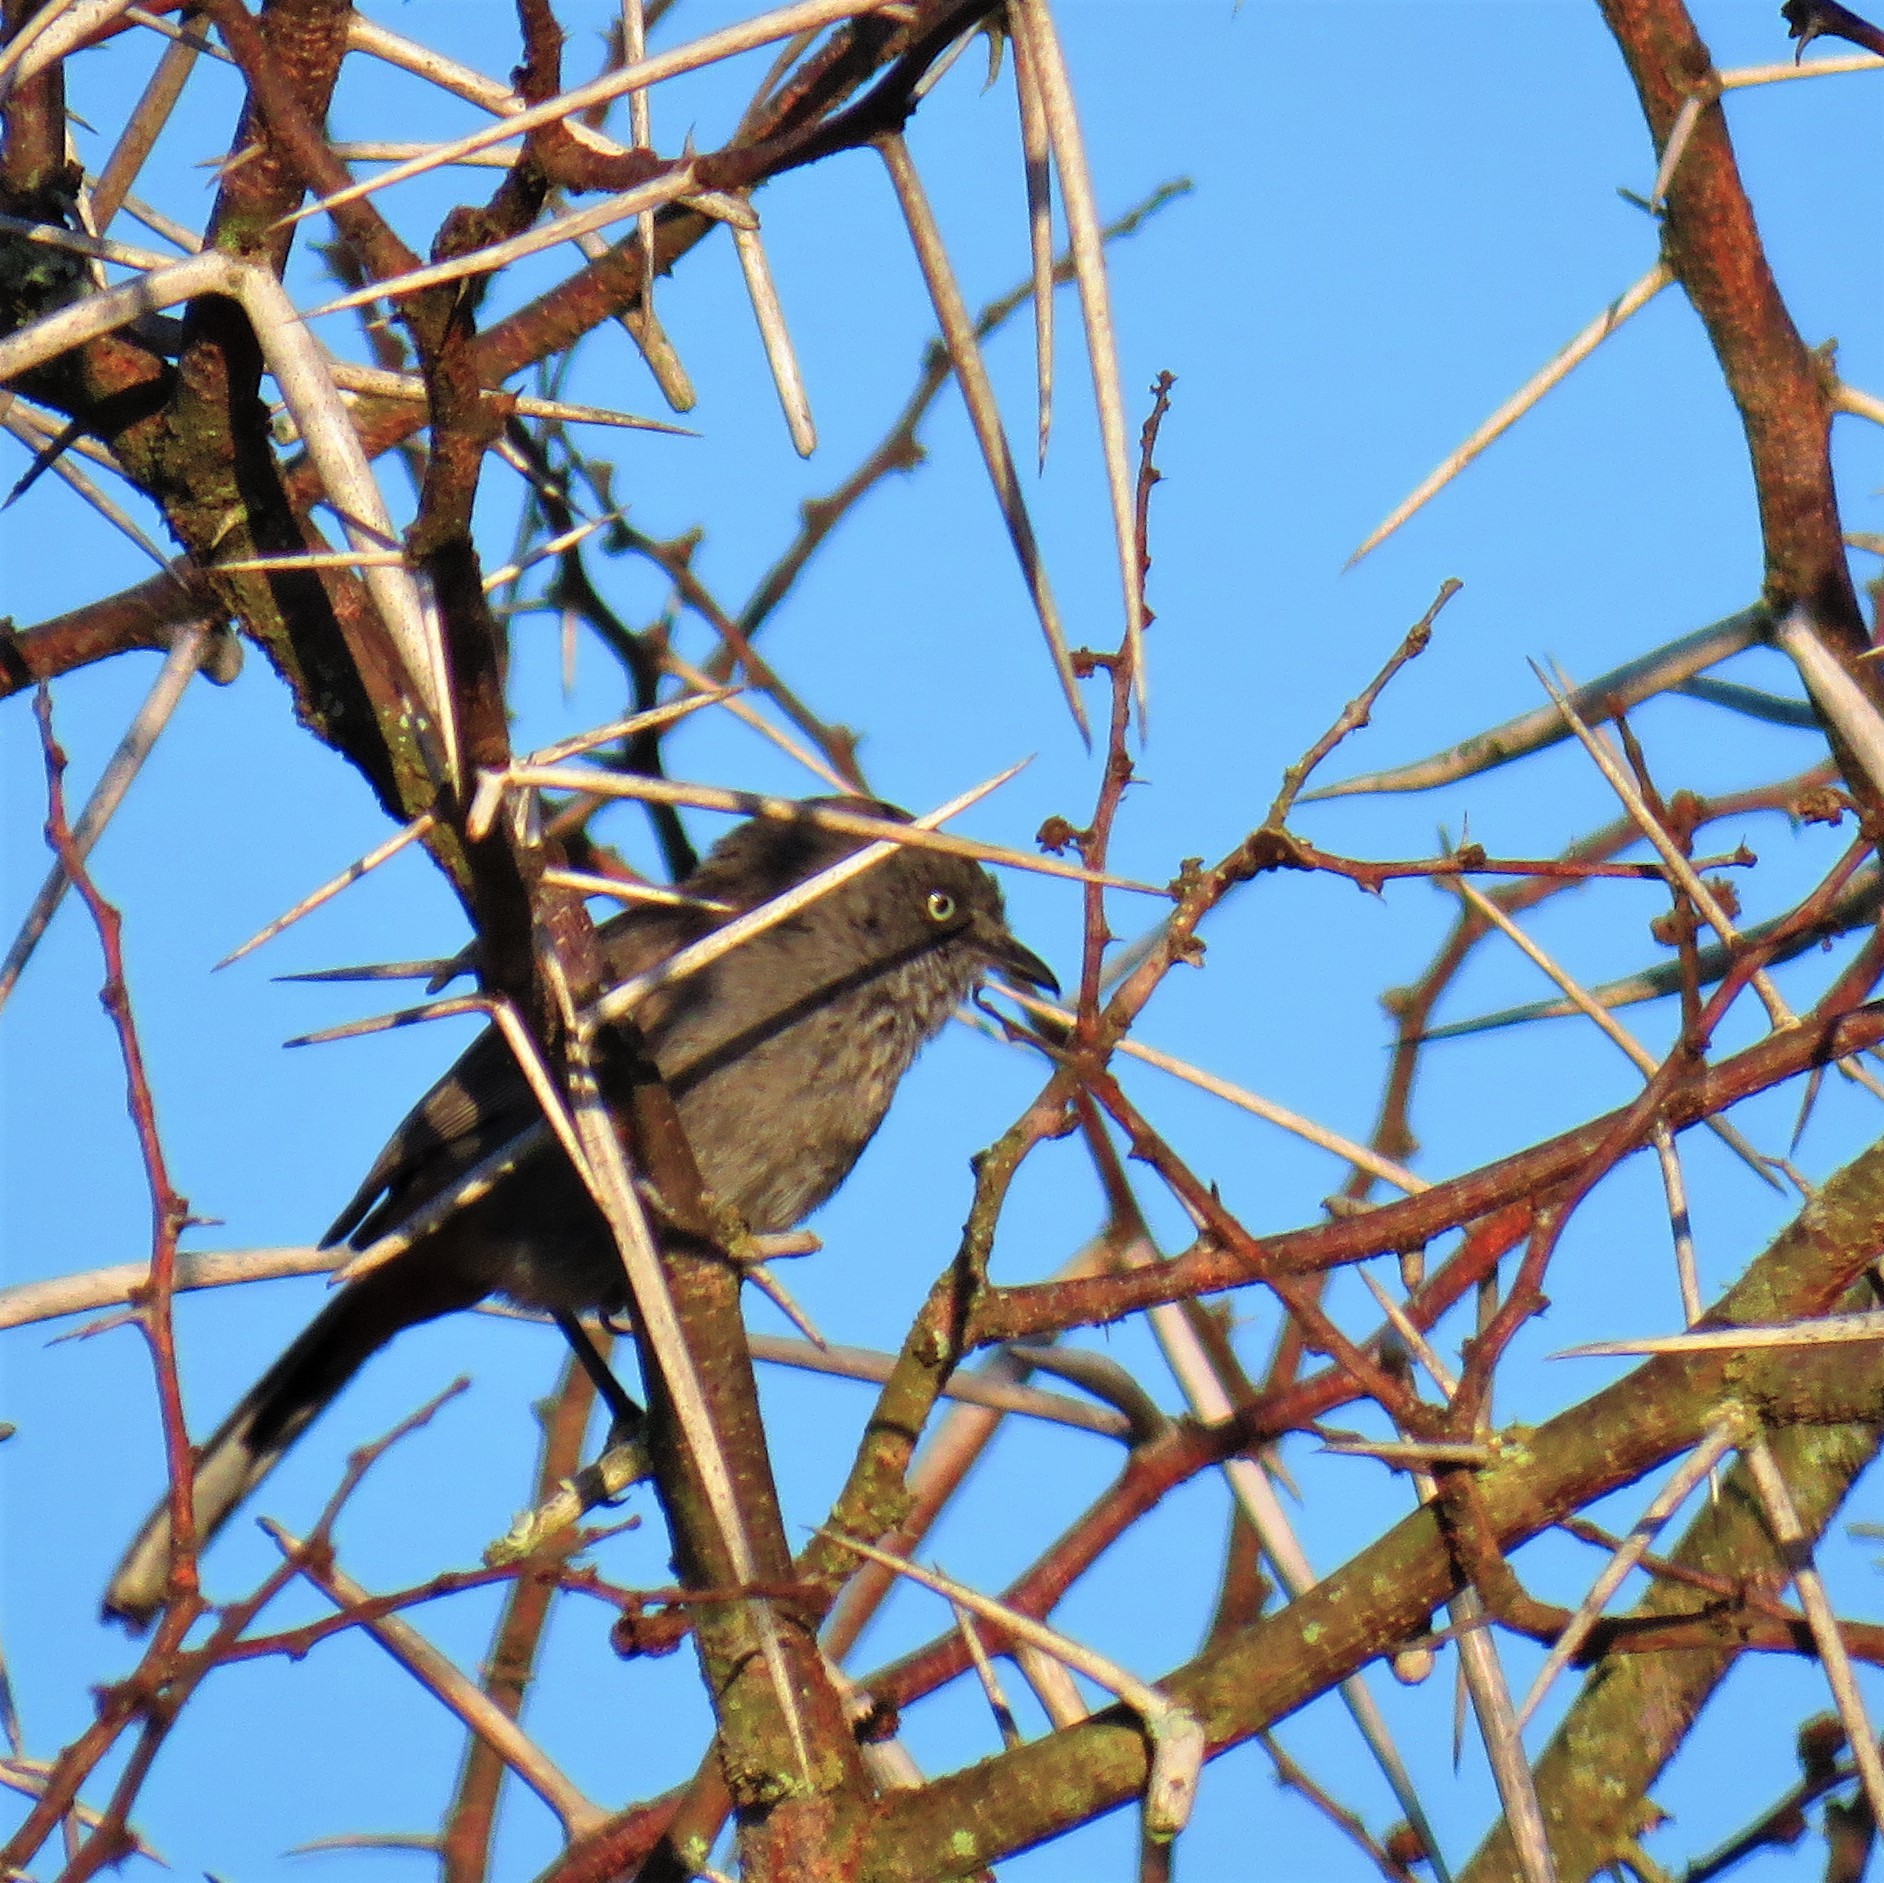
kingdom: Animalia
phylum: Chordata
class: Aves
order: Passeriformes
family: Sylviidae
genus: Curruca
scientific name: Curruca subcoerulea
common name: Chestnut-vented warbler
